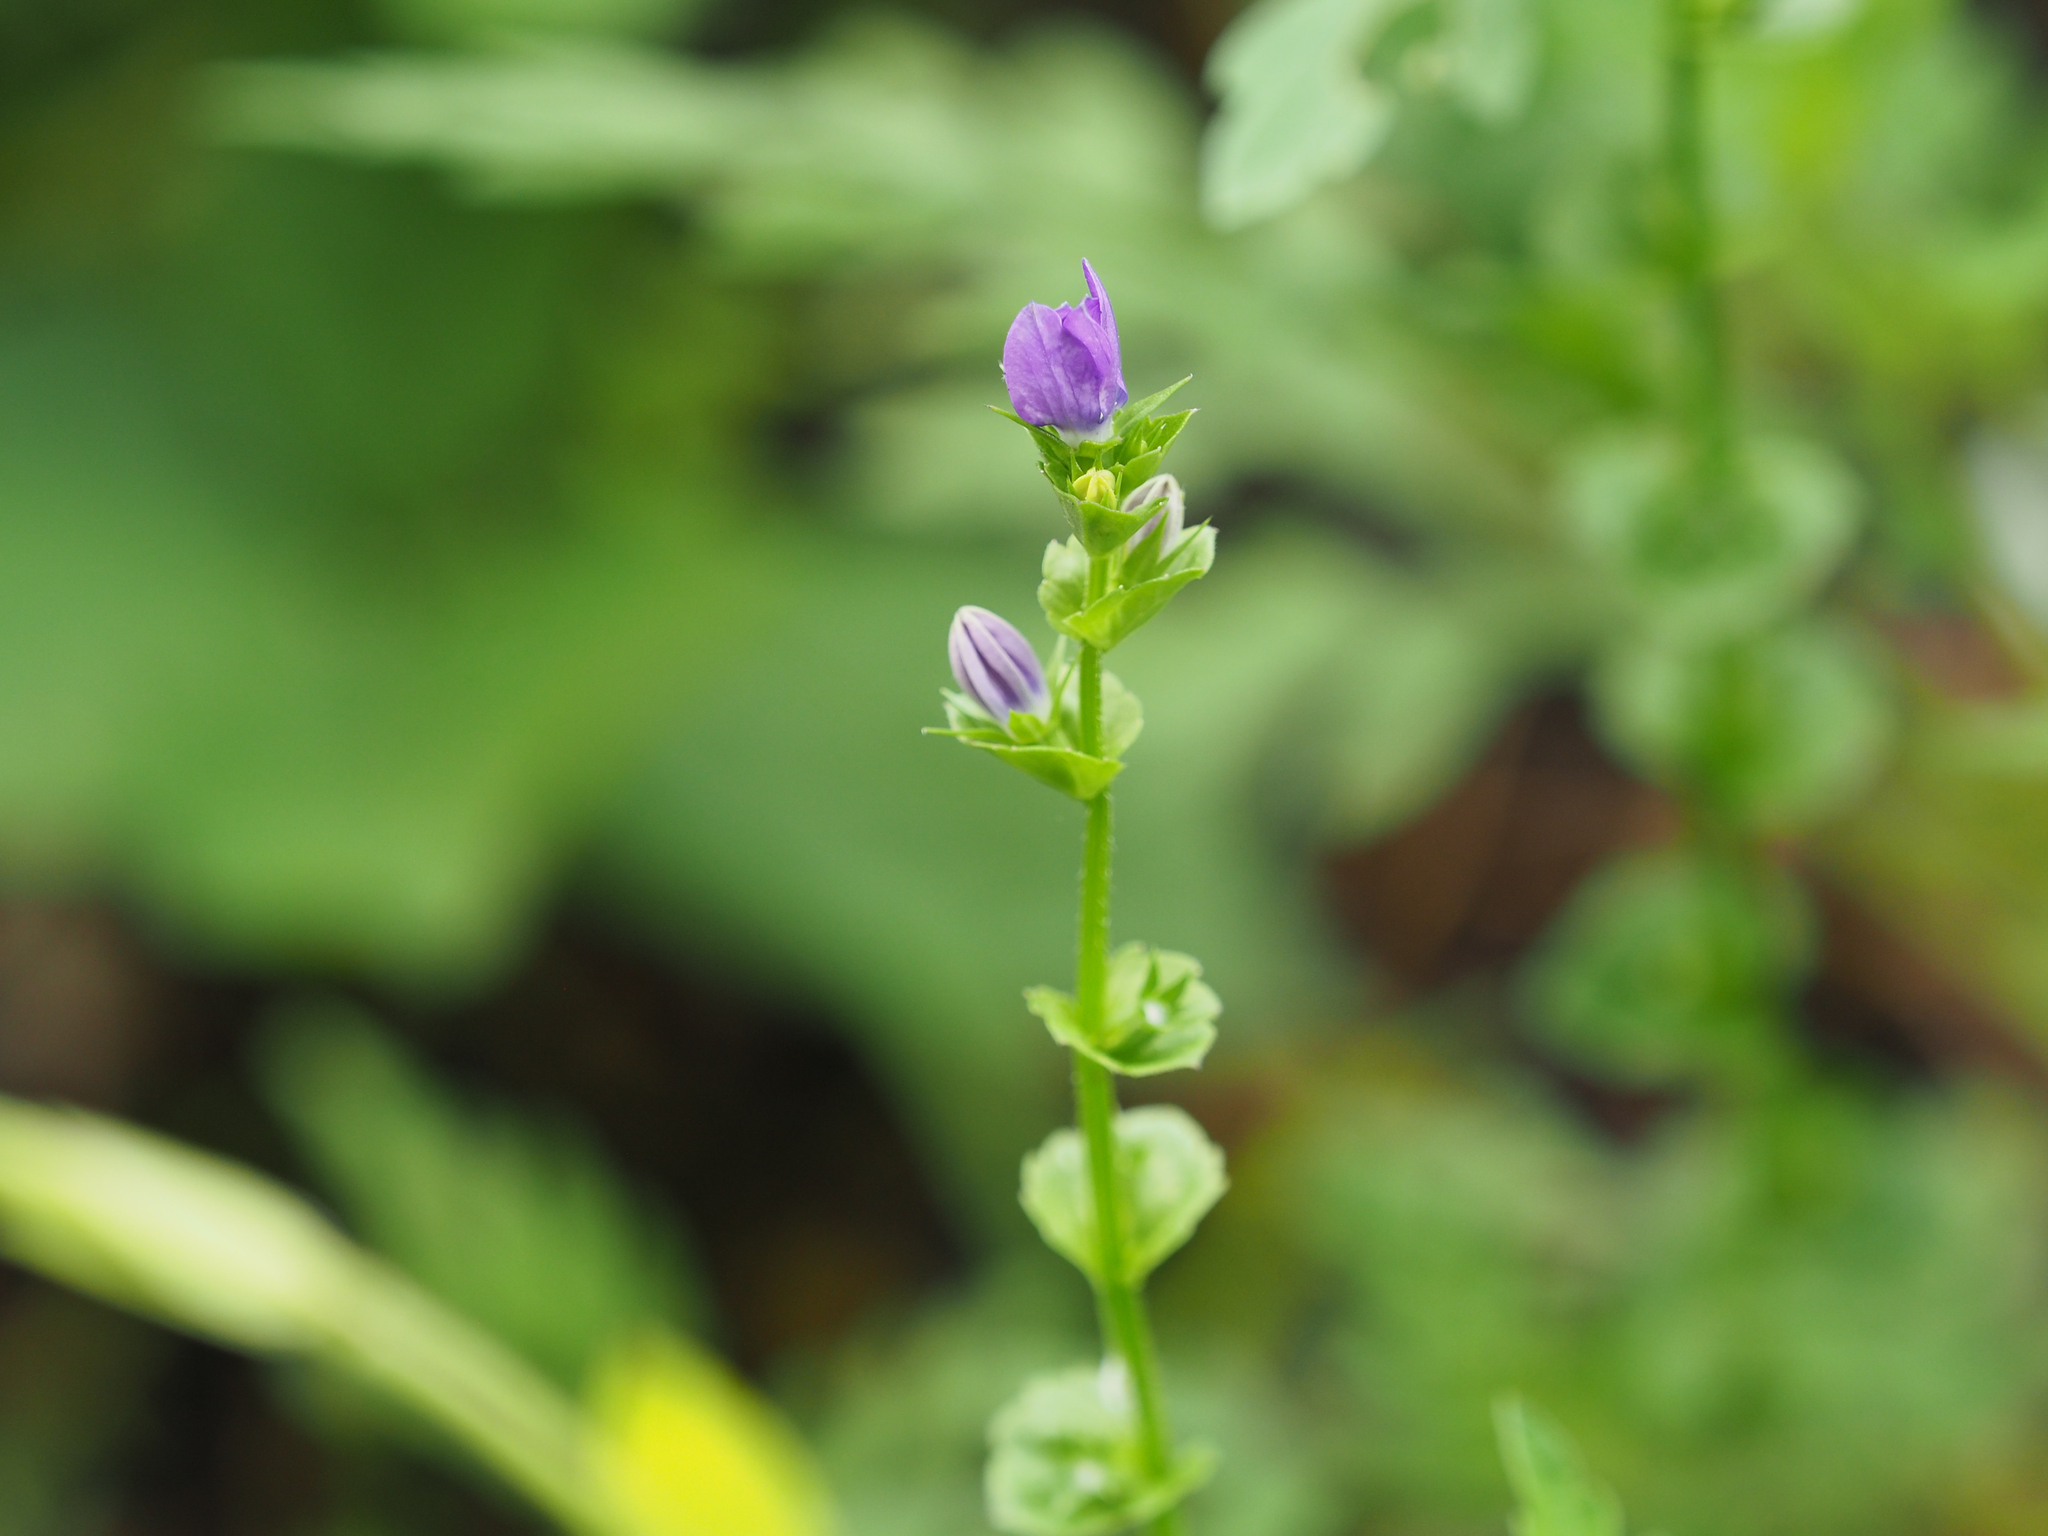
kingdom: Plantae
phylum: Tracheophyta
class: Magnoliopsida
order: Asterales
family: Campanulaceae
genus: Triodanis
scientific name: Triodanis perfoliata
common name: Clasping venus' looking-glass
